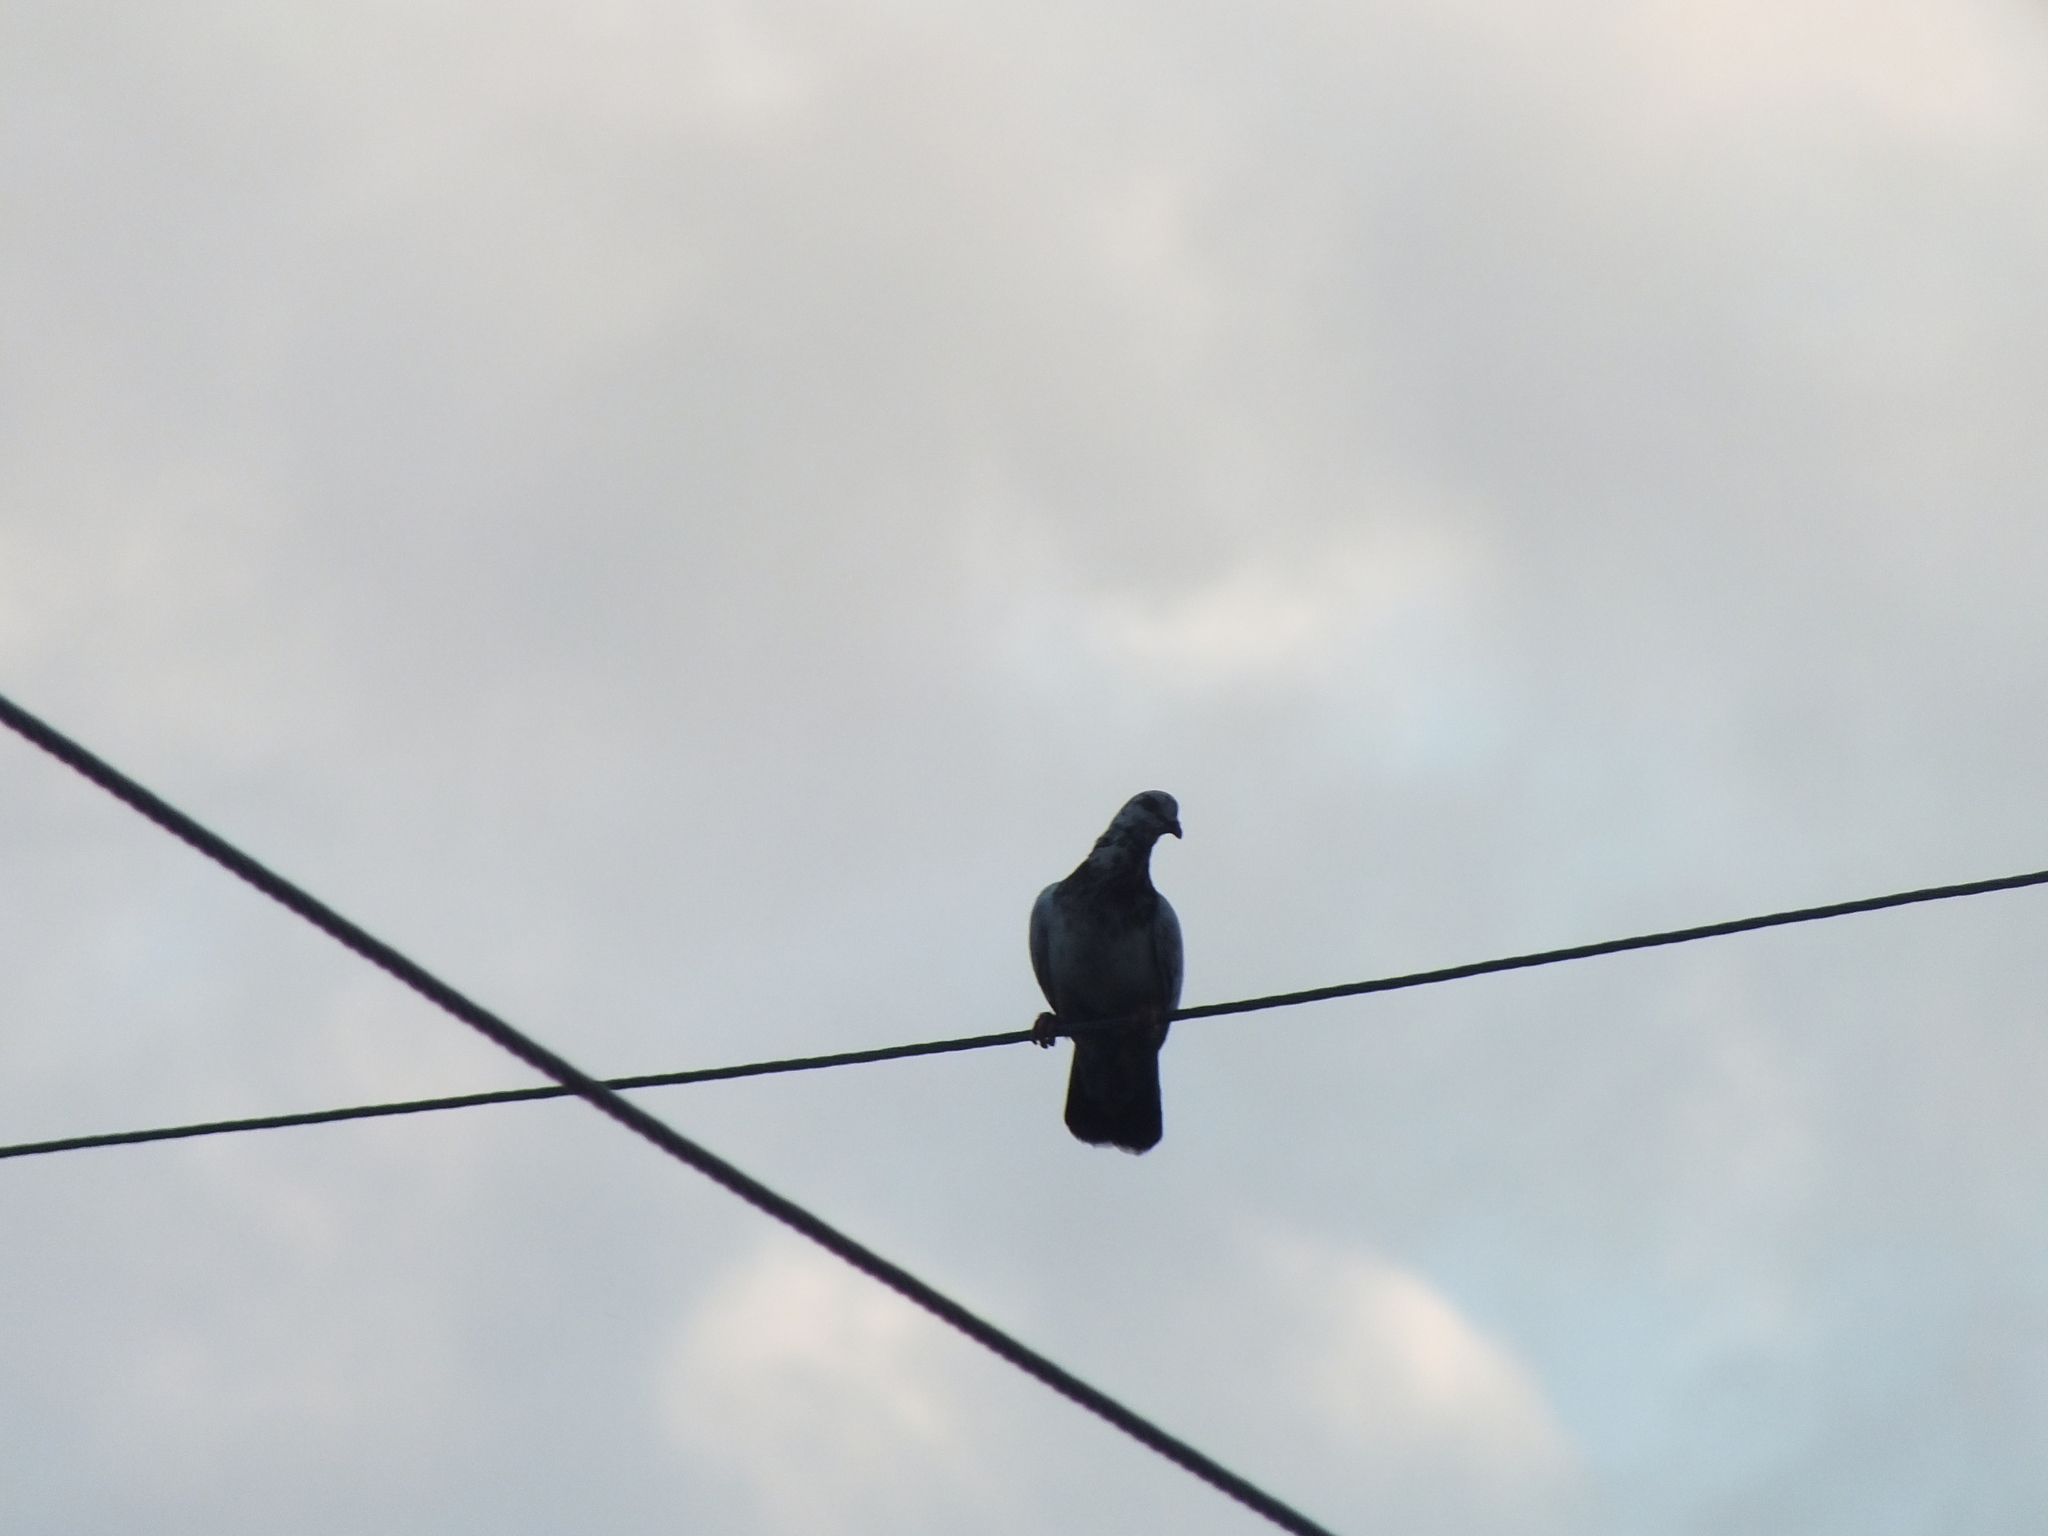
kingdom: Animalia
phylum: Chordata
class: Aves
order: Columbiformes
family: Columbidae
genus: Columba
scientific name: Columba livia
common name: Rock pigeon
